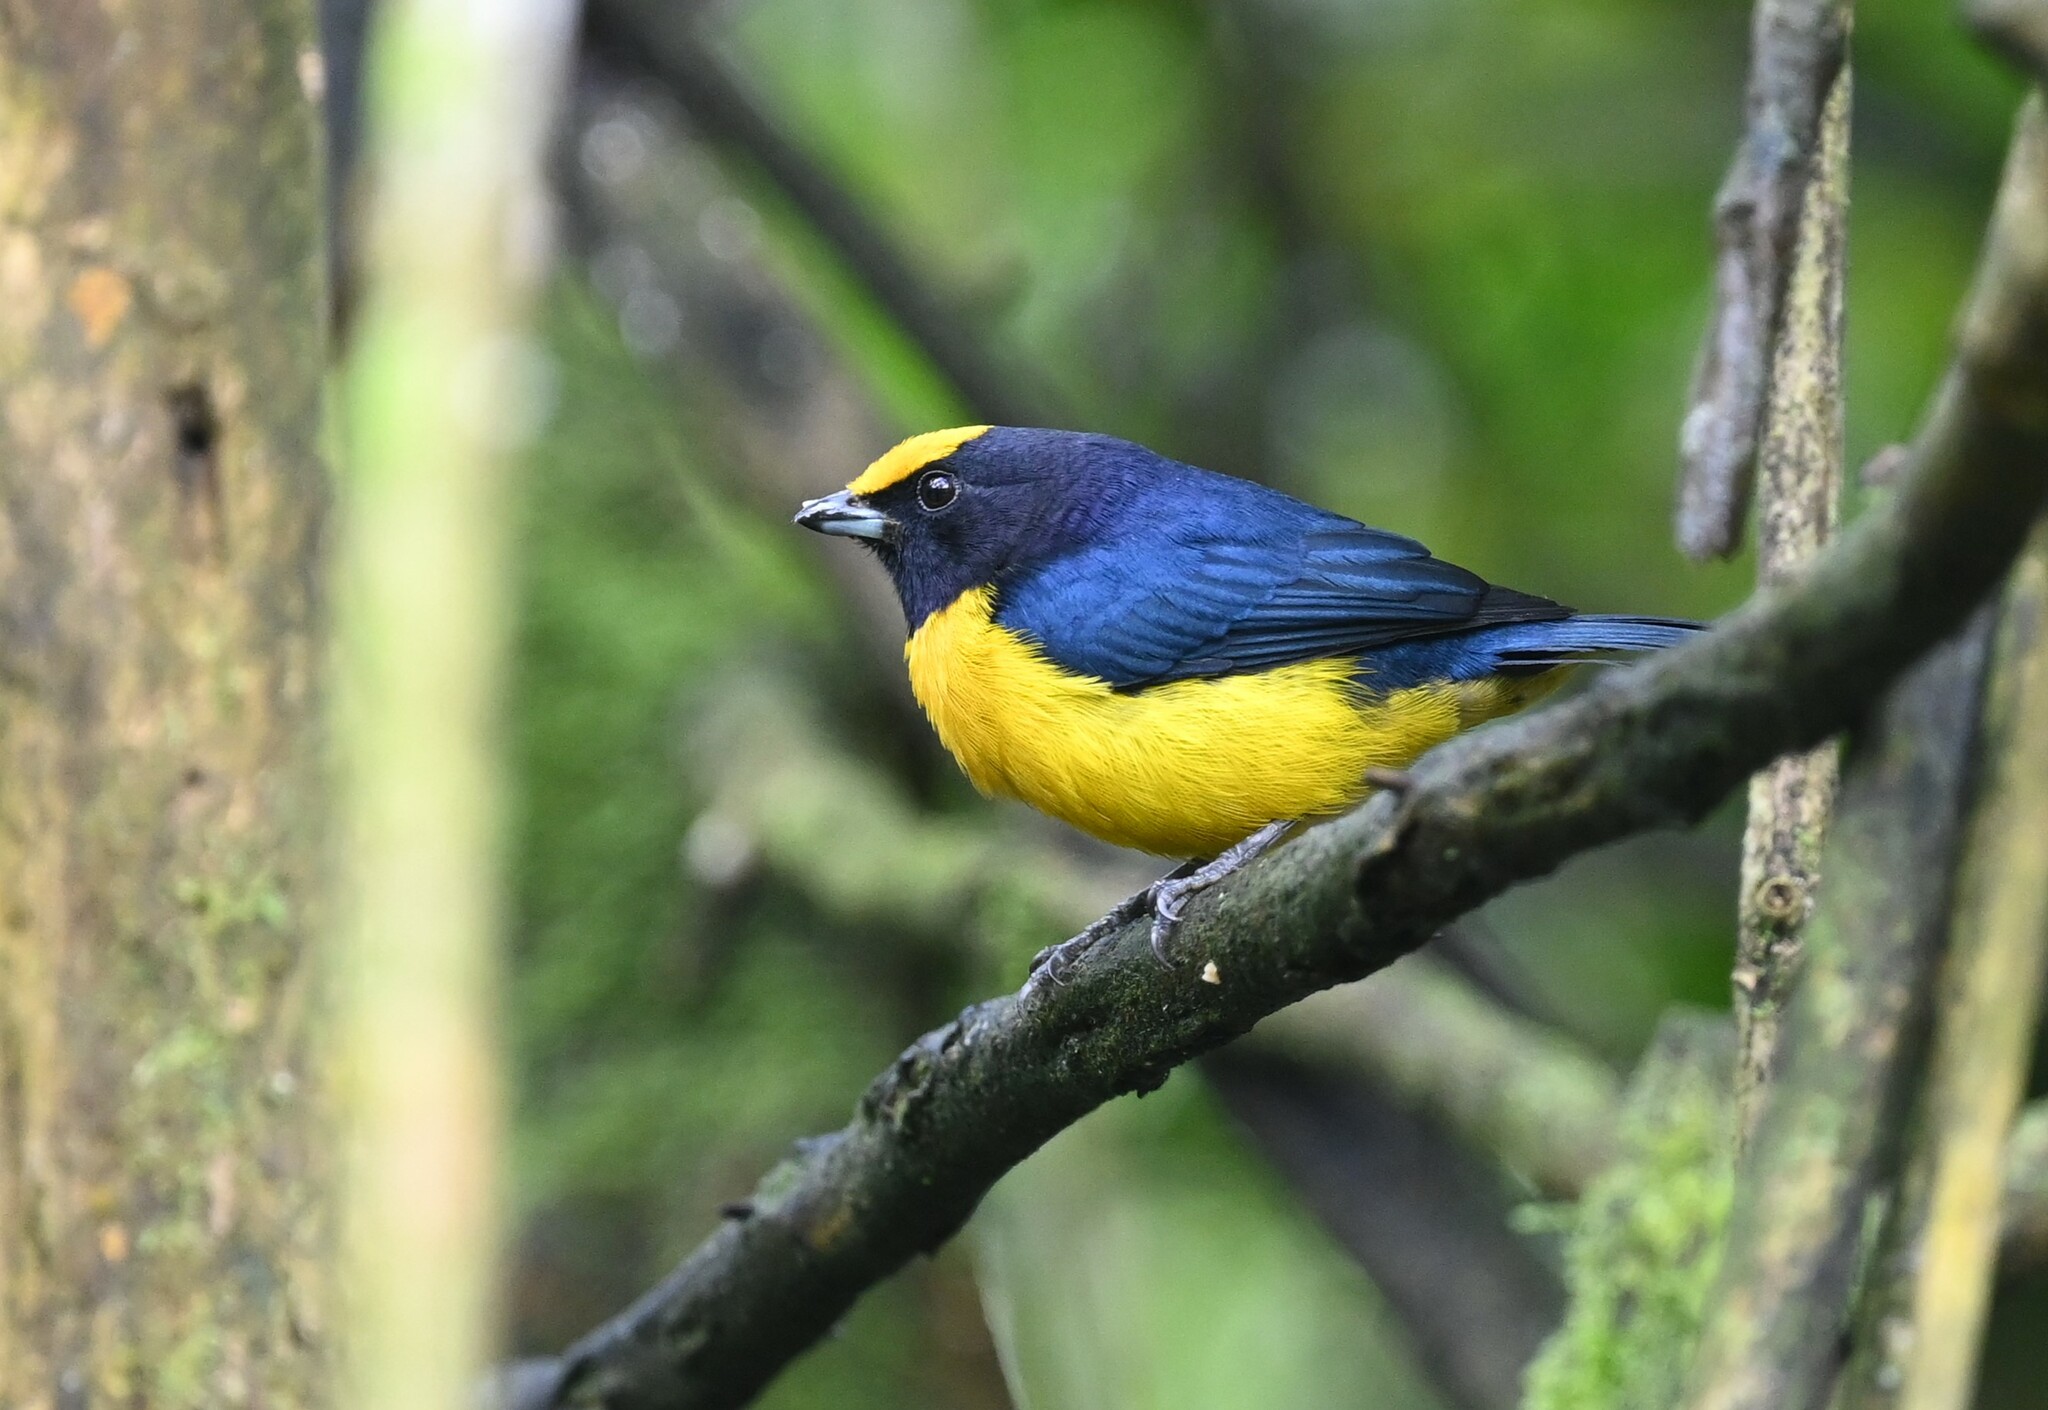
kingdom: Animalia
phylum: Chordata
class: Aves
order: Passeriformes
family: Fringillidae
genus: Euphonia
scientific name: Euphonia xanthogaster
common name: Orange-bellied euphonia
